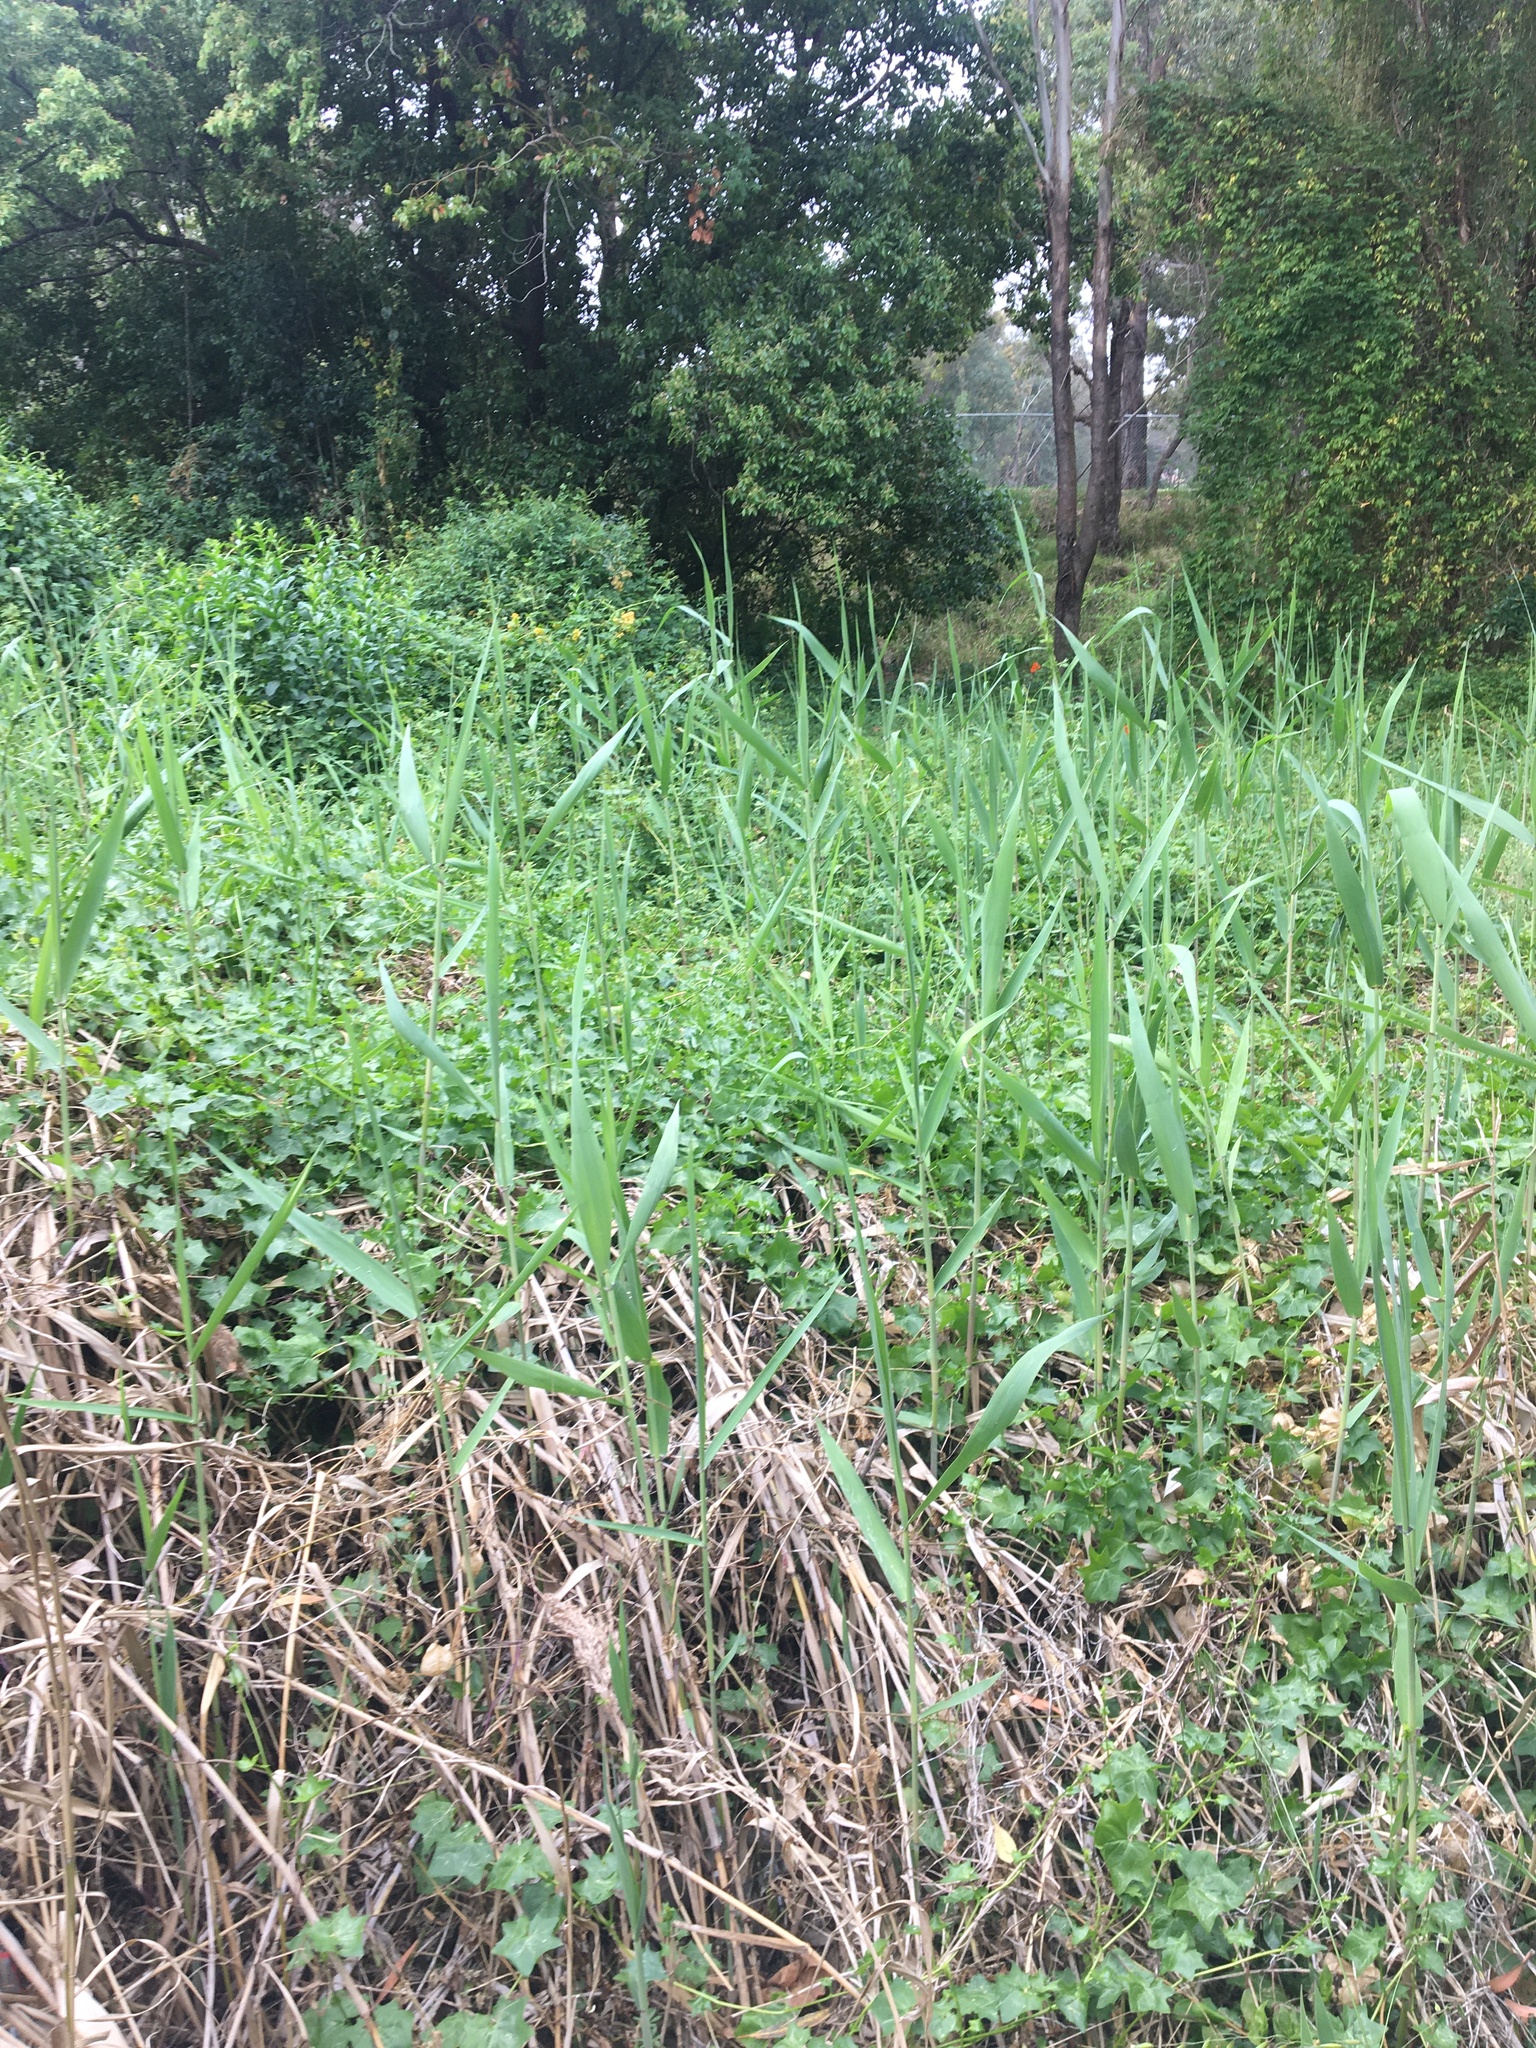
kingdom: Plantae
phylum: Tracheophyta
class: Liliopsida
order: Poales
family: Poaceae
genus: Phragmites
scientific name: Phragmites australis
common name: Common reed
